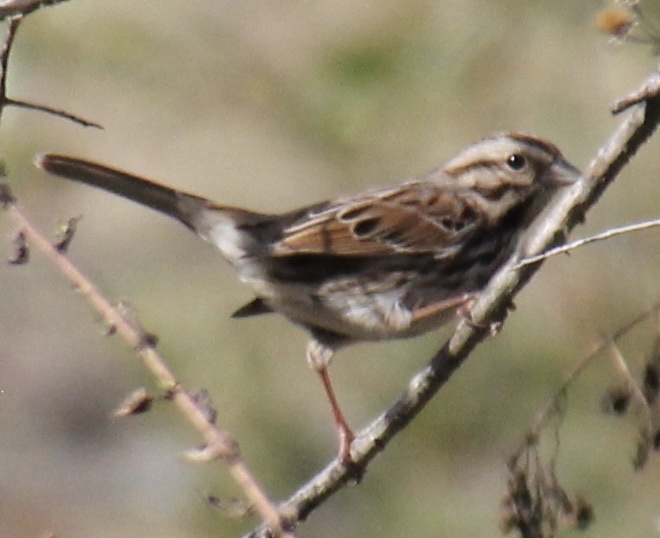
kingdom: Animalia
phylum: Chordata
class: Aves
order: Passeriformes
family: Passerellidae
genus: Melospiza
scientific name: Melospiza melodia
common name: Song sparrow
